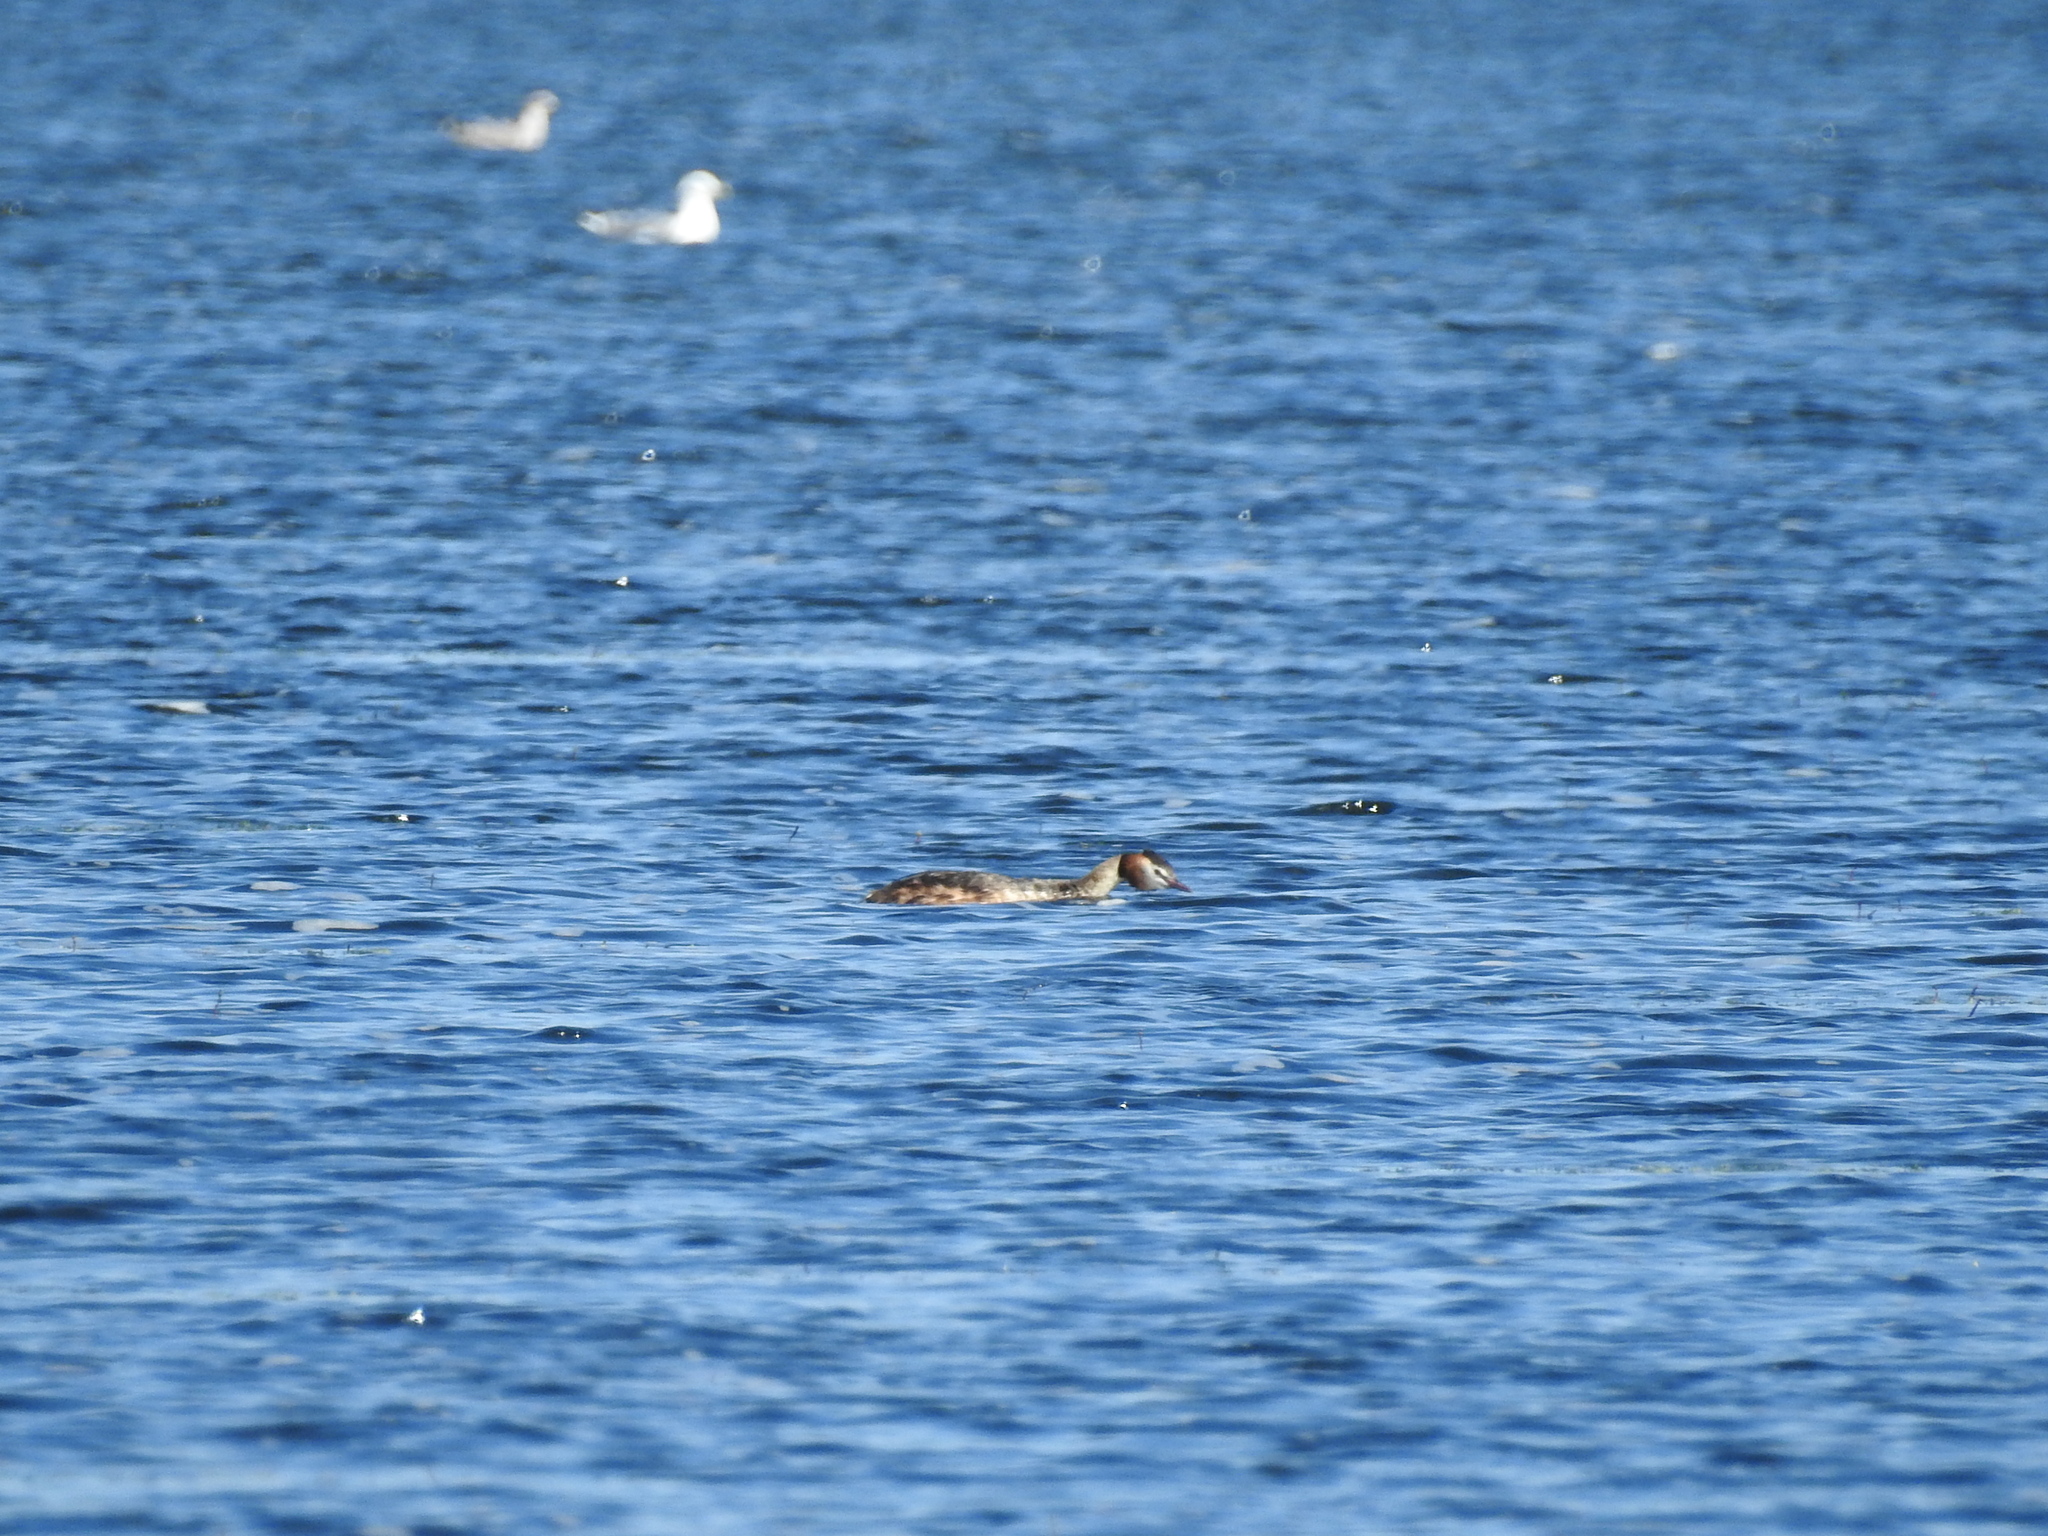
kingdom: Animalia
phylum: Chordata
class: Aves
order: Podicipediformes
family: Podicipedidae
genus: Podiceps
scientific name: Podiceps cristatus
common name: Great crested grebe
